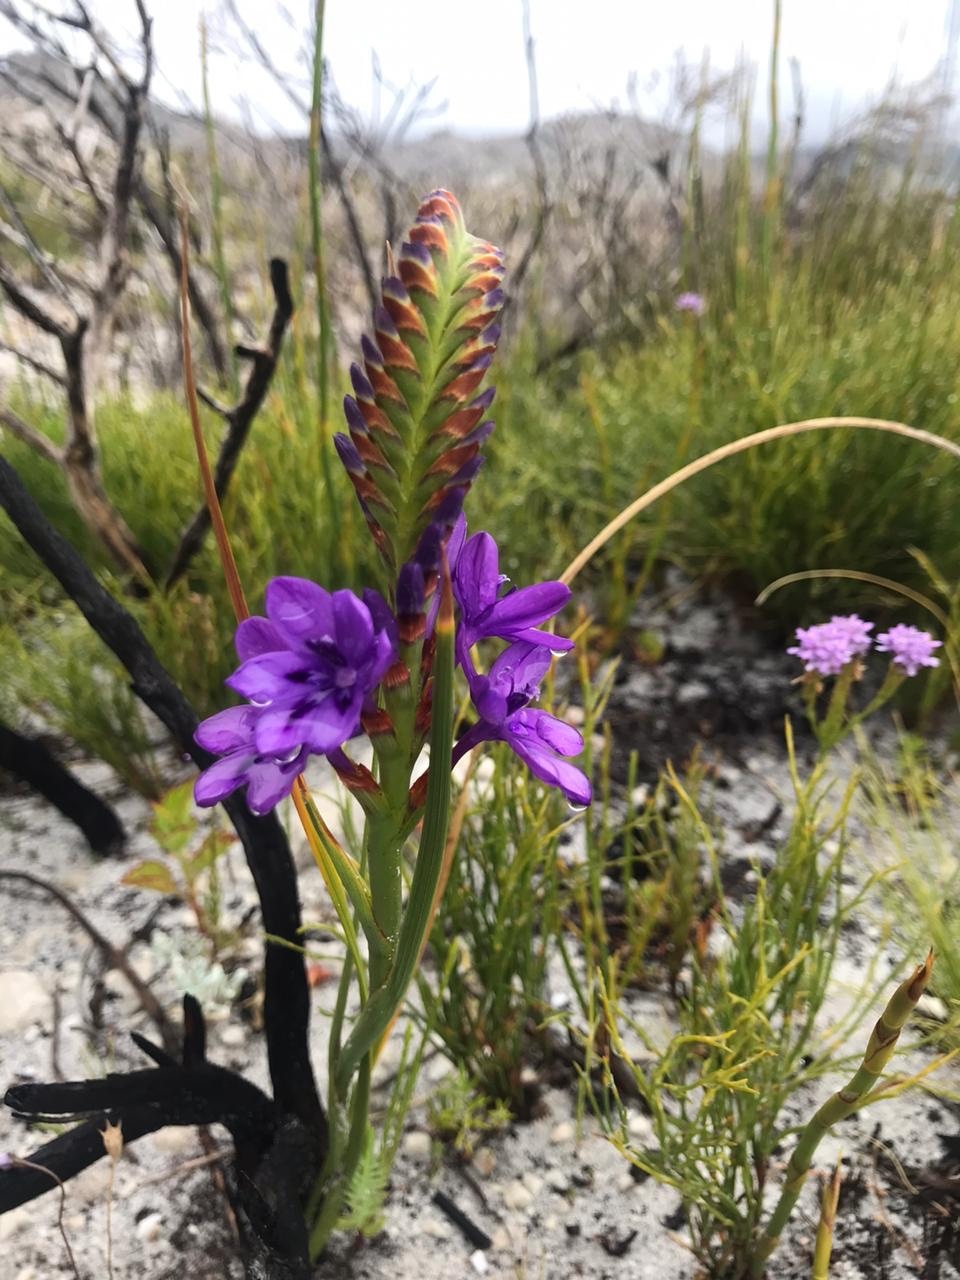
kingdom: Plantae
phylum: Tracheophyta
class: Liliopsida
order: Asparagales
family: Iridaceae
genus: Thereianthus
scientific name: Thereianthus spicatus
